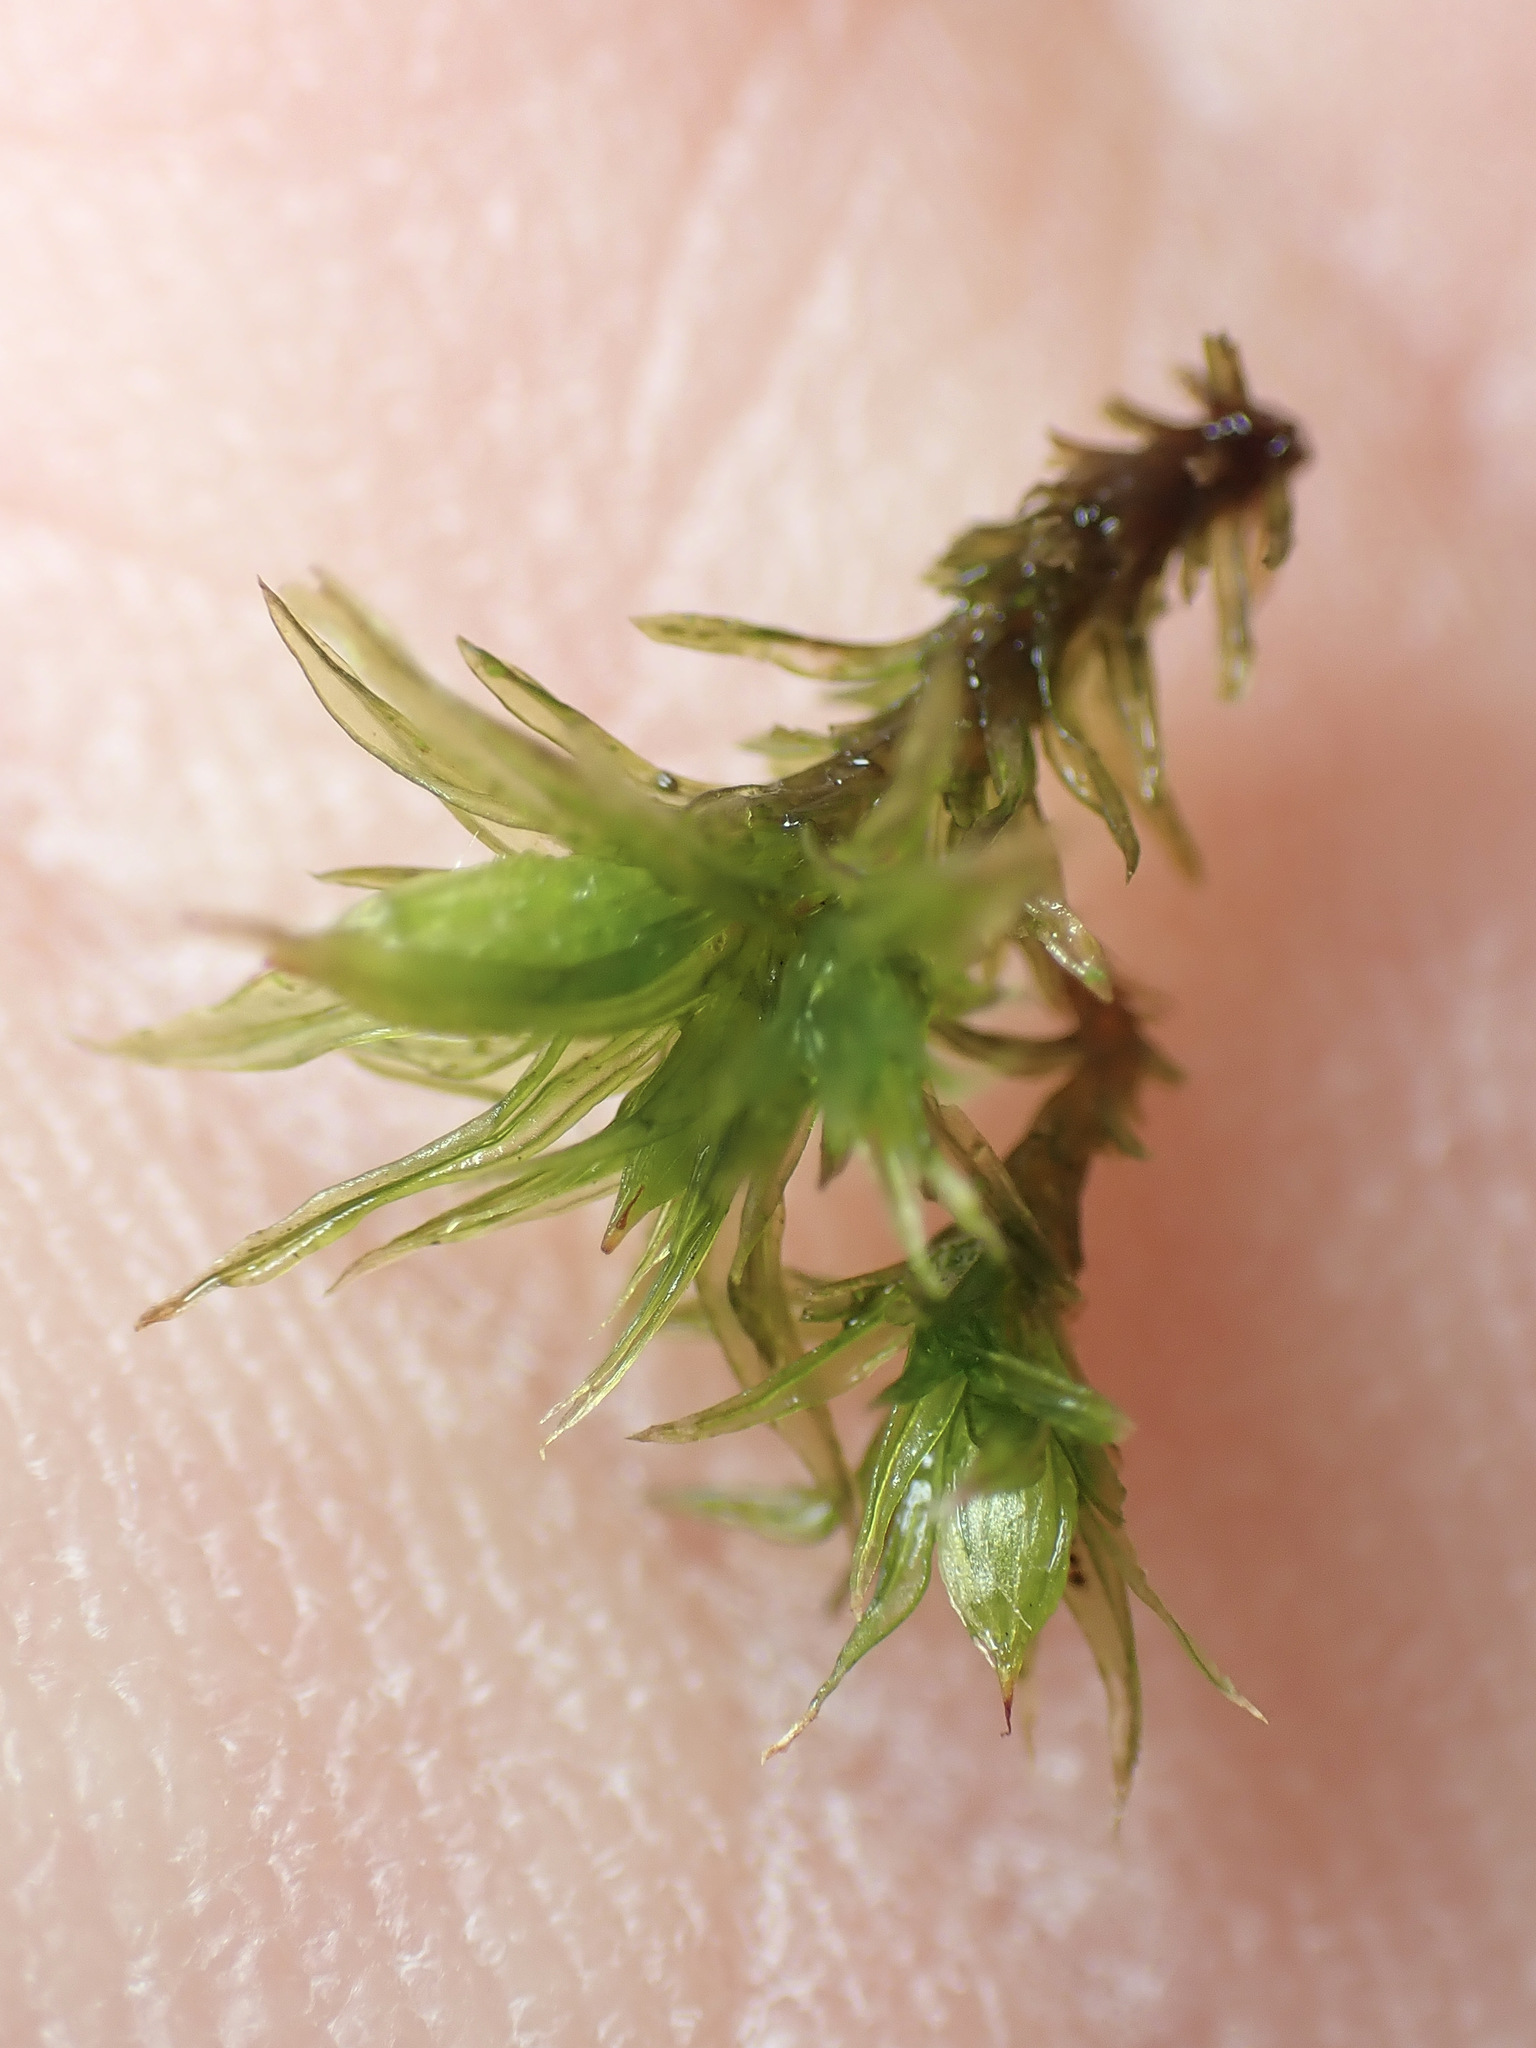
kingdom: Plantae
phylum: Bryophyta
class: Bryopsida
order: Orthotrichales
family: Orthotrichaceae
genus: Lewinskya
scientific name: Lewinskya affinis
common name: Wood bristle-moss
